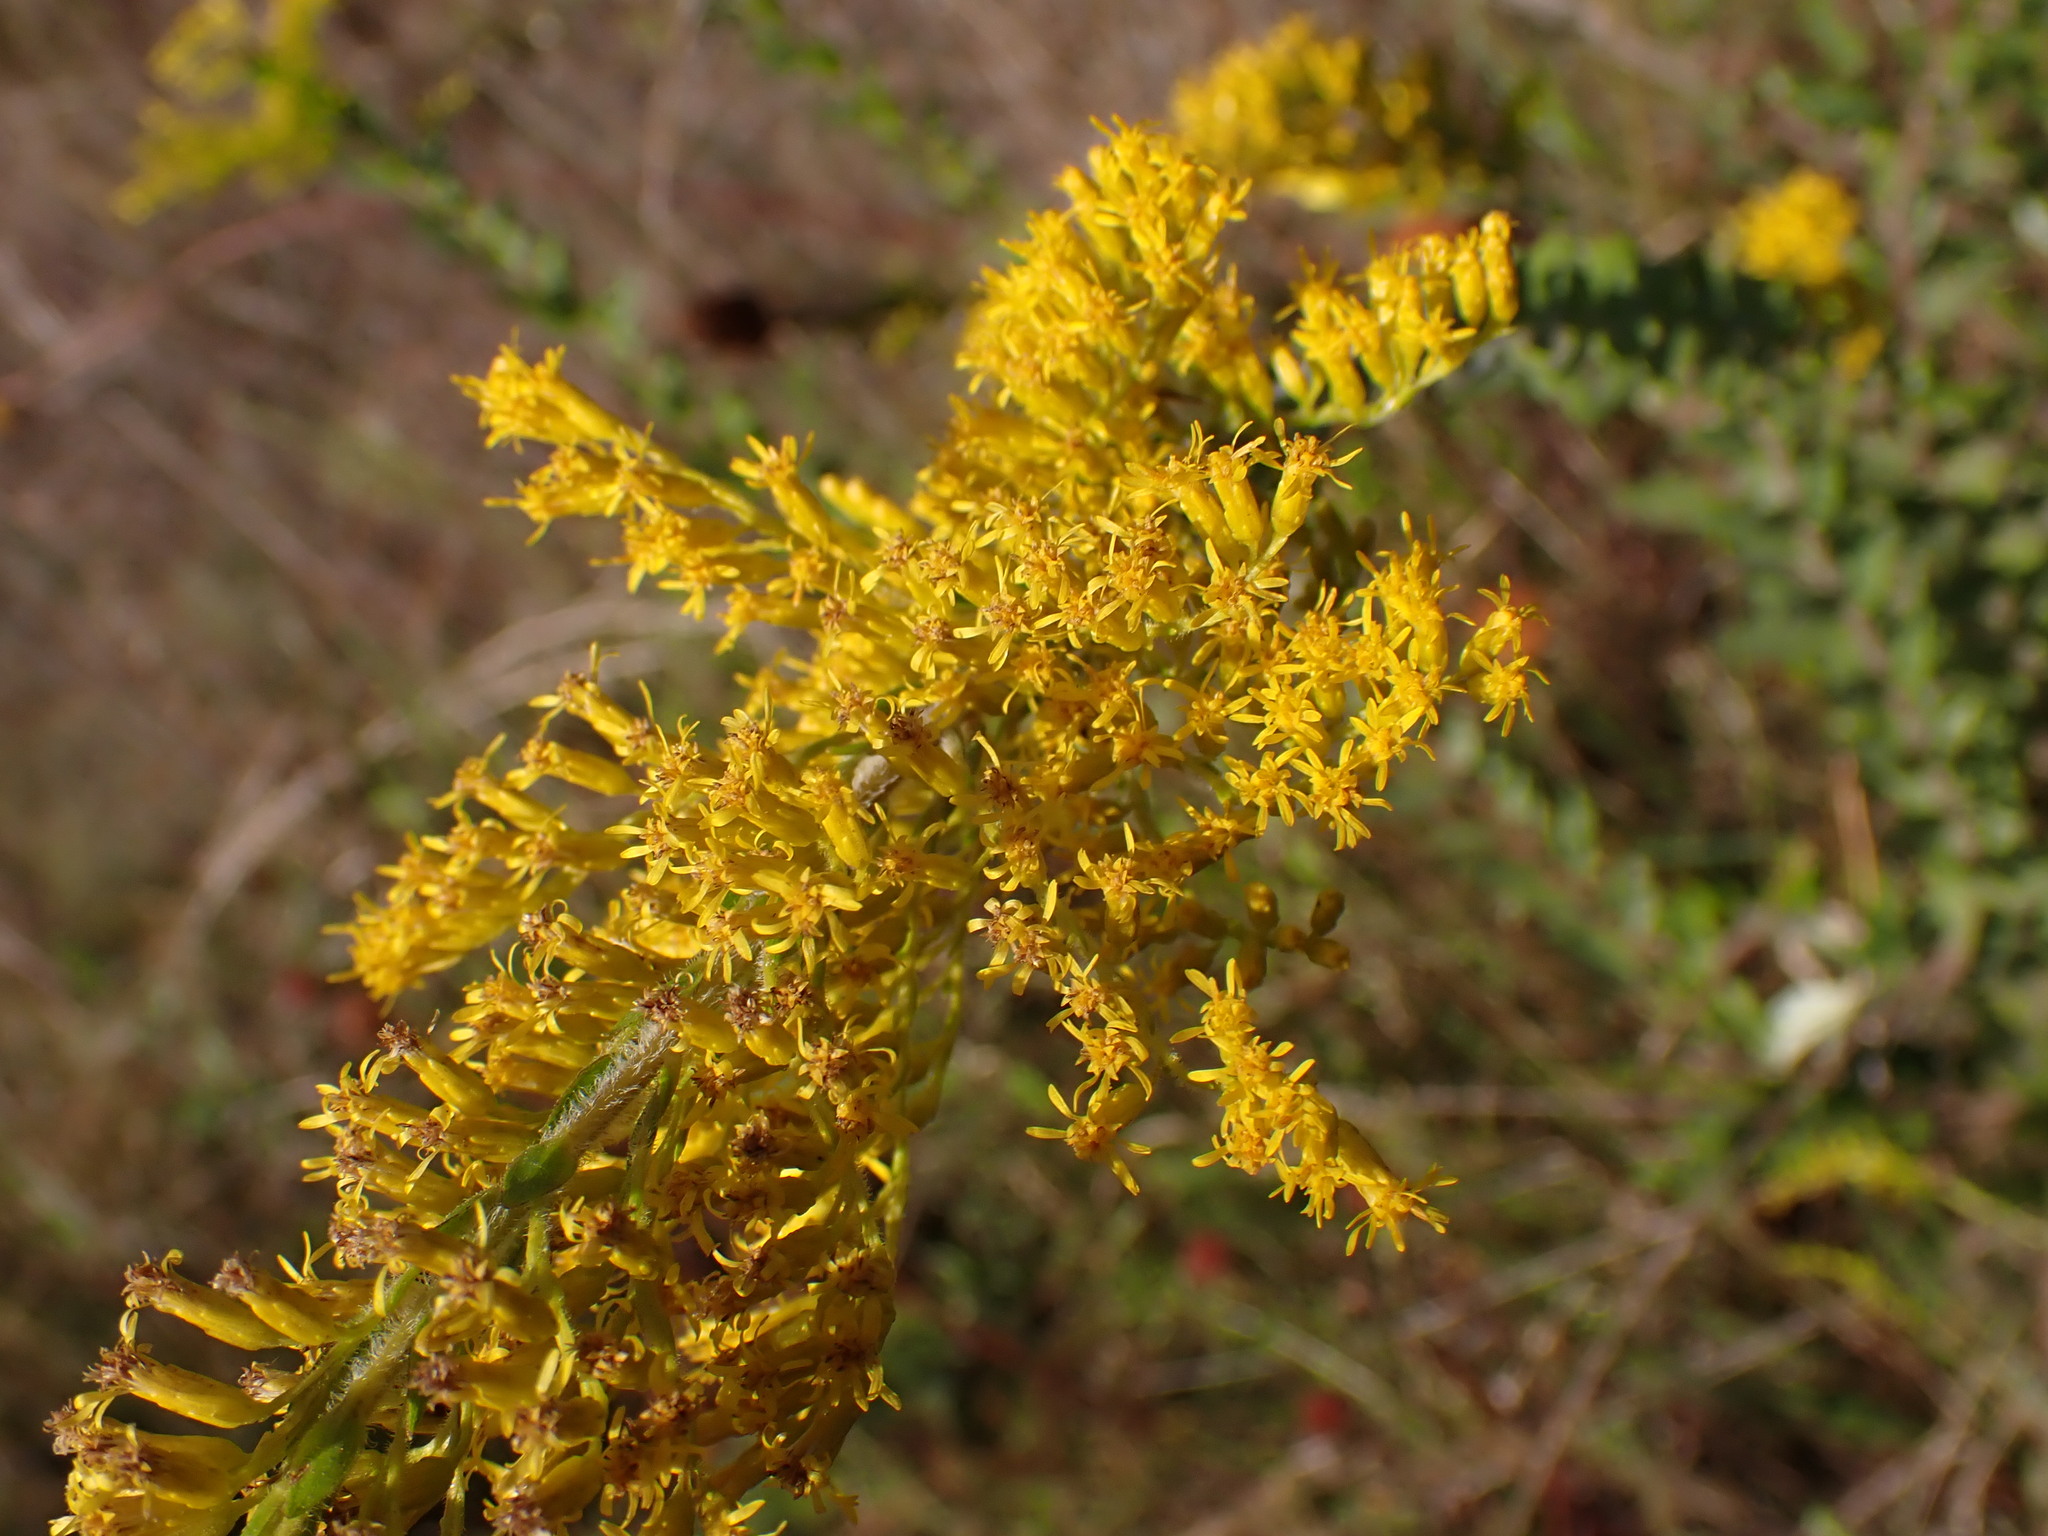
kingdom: Plantae
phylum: Tracheophyta
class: Magnoliopsida
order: Asterales
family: Asteraceae
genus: Solidago
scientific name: Solidago fistulosa
